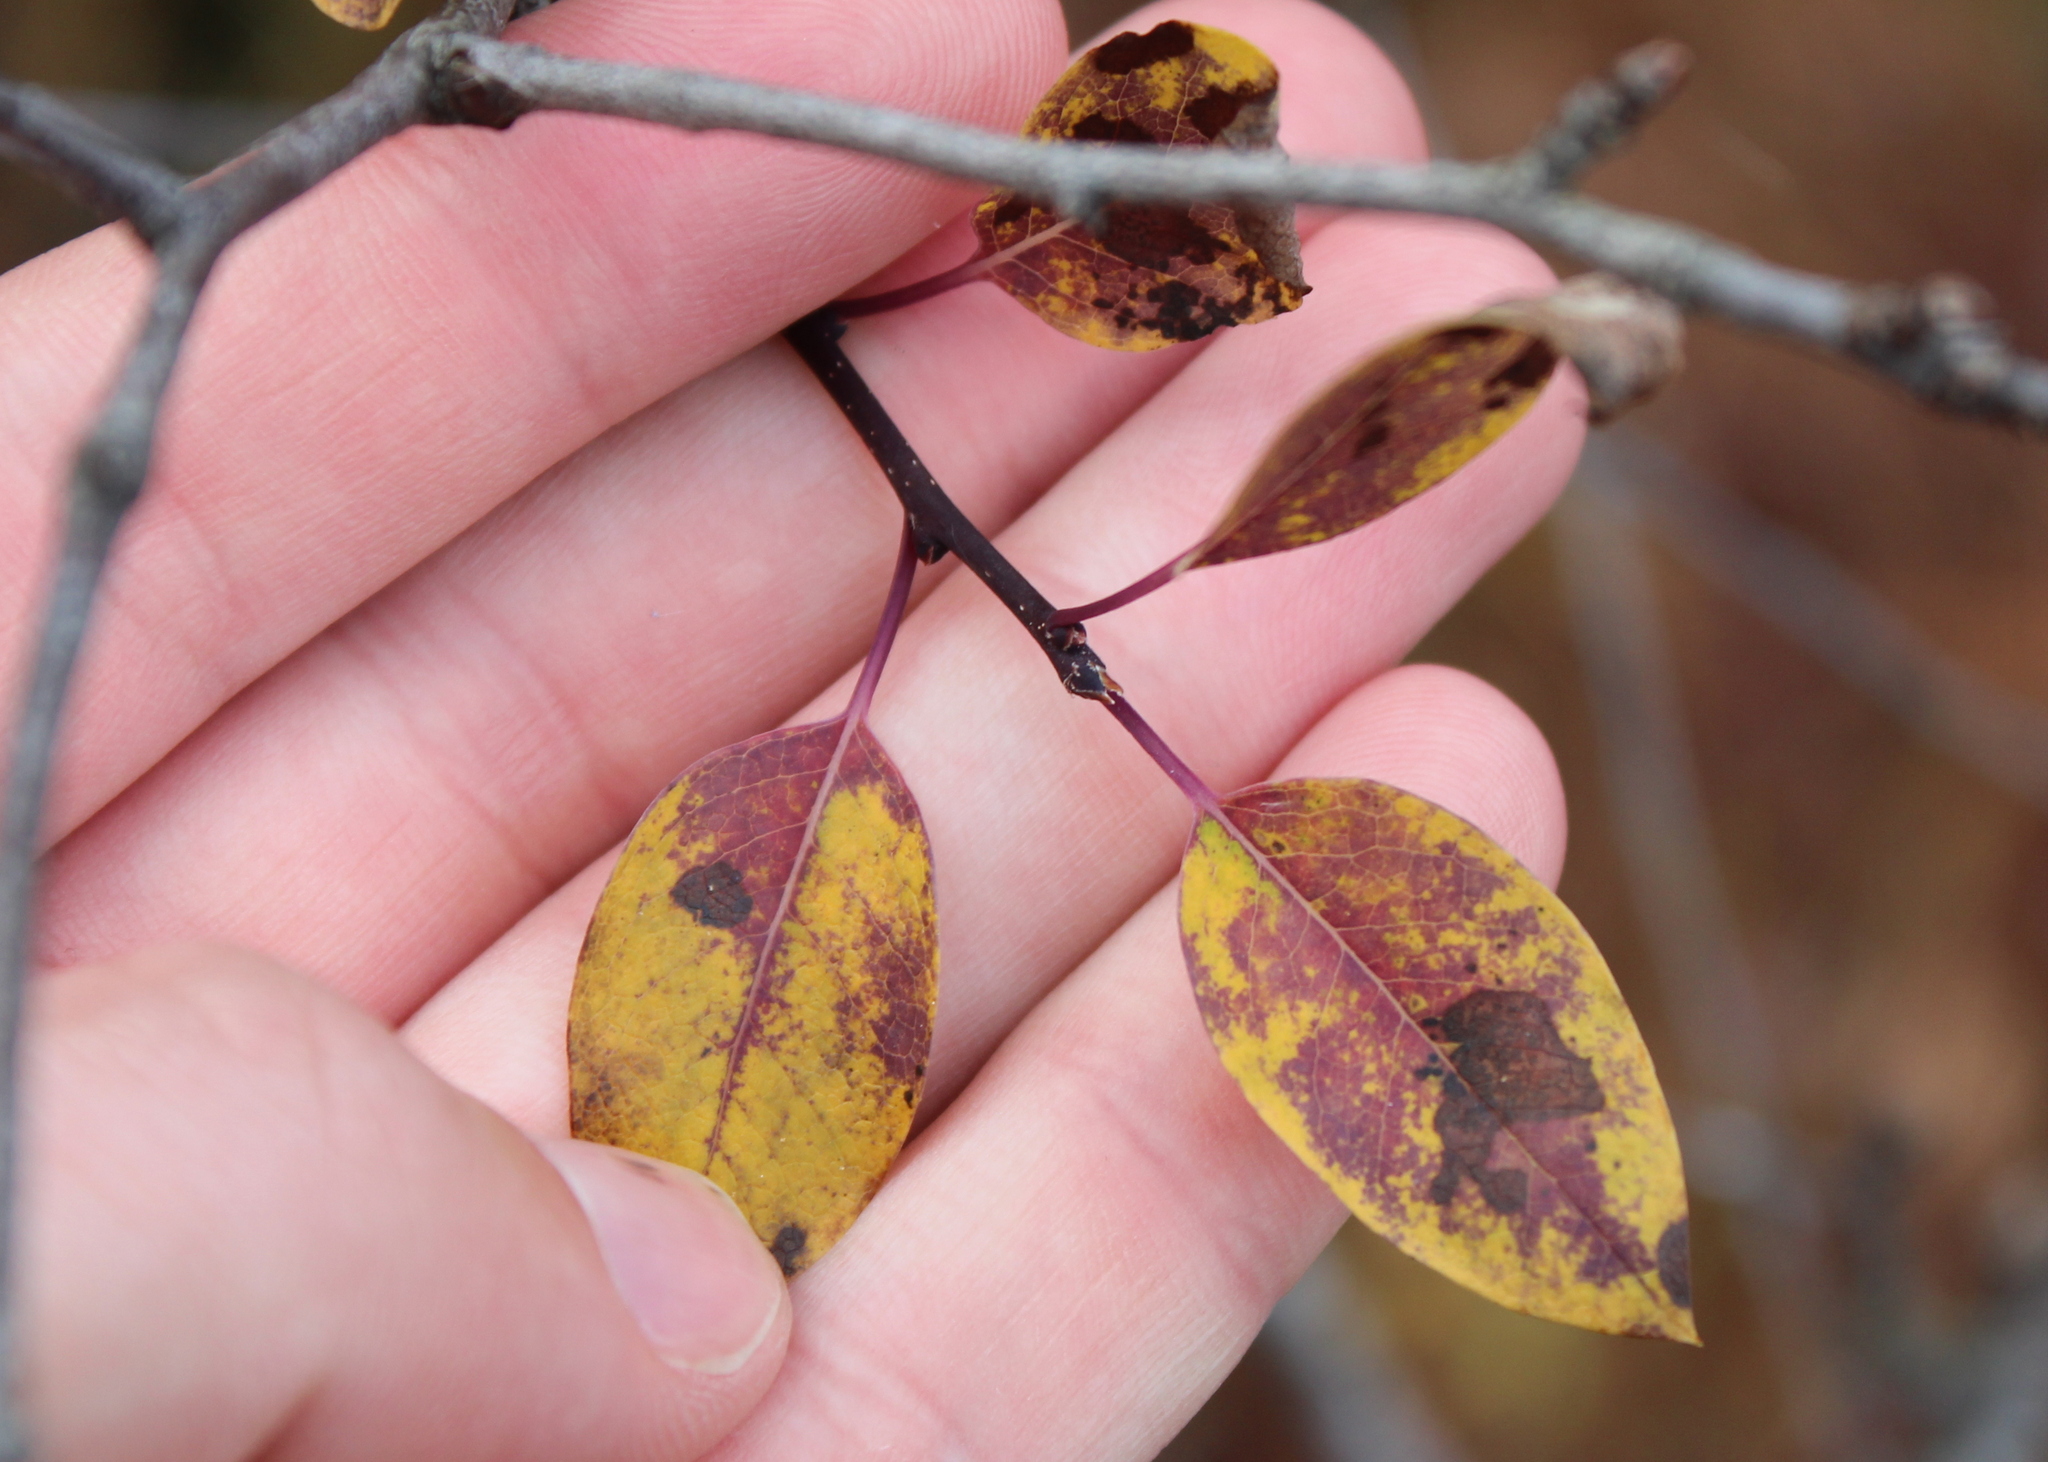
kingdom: Plantae
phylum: Tracheophyta
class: Magnoliopsida
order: Aquifoliales
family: Aquifoliaceae
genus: Ilex
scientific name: Ilex mucronata
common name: Catberry
